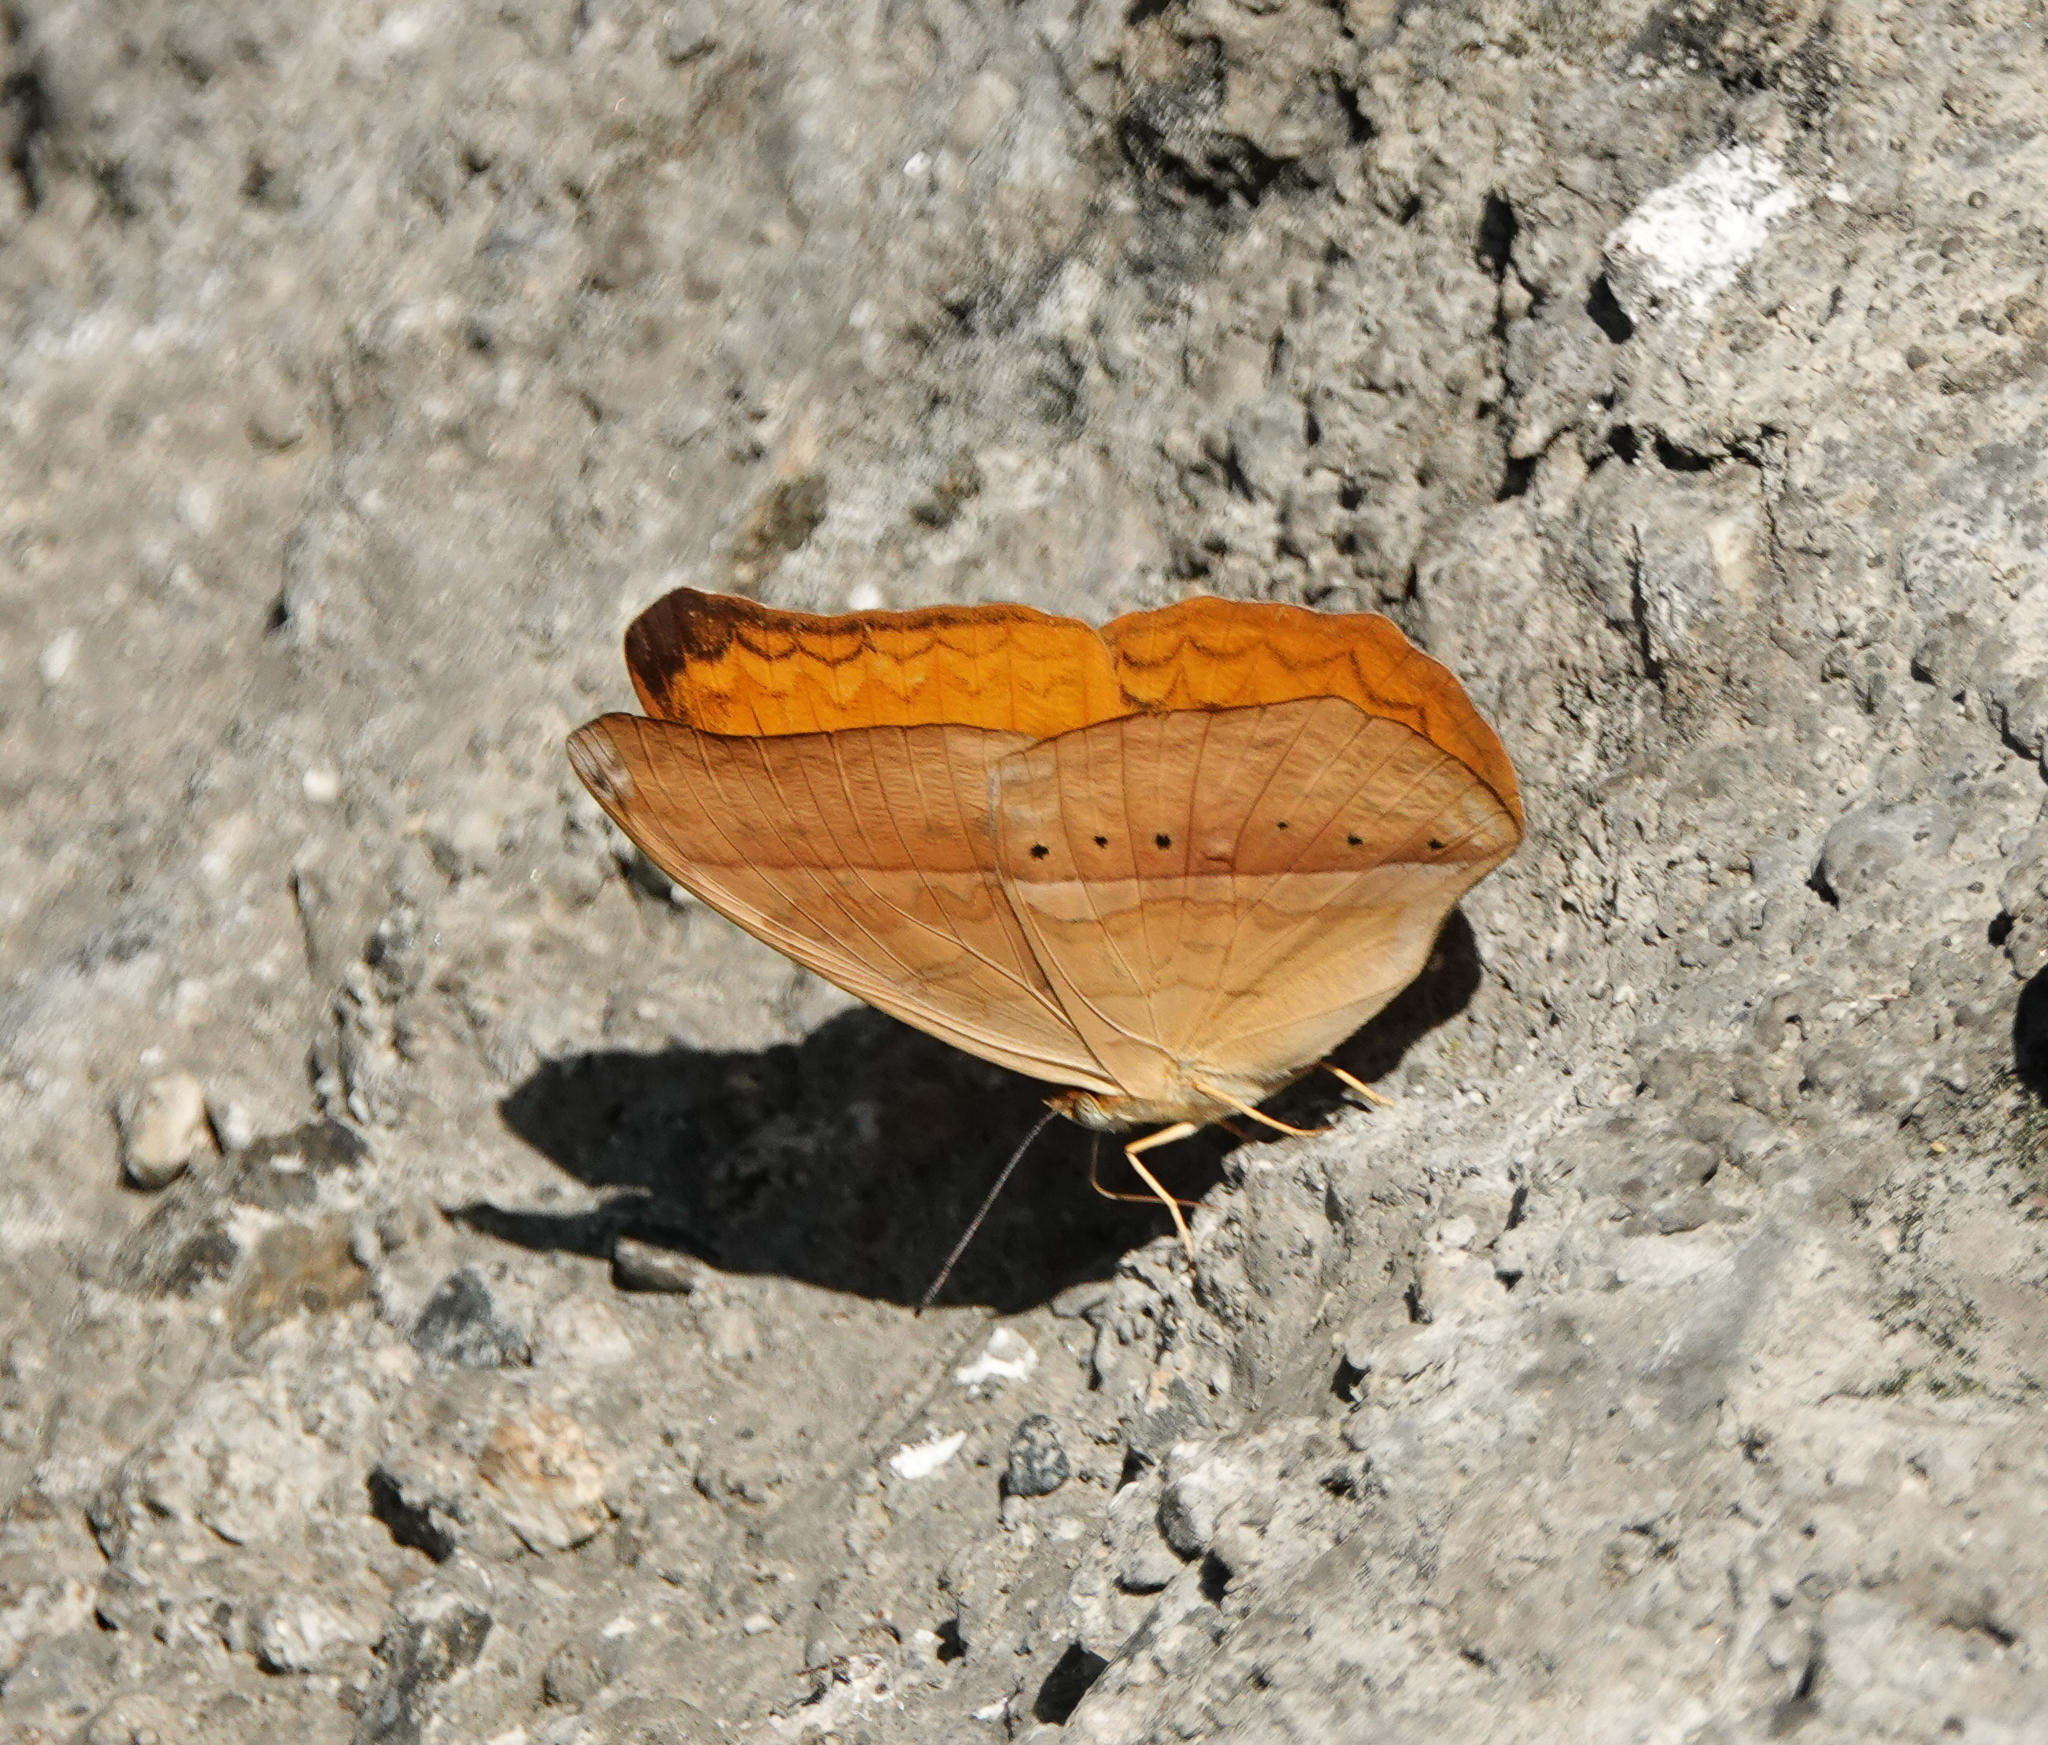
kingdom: Animalia
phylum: Arthropoda
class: Insecta
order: Lepidoptera
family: Nymphalidae
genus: Cirrochroa
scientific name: Cirrochroa aoris
